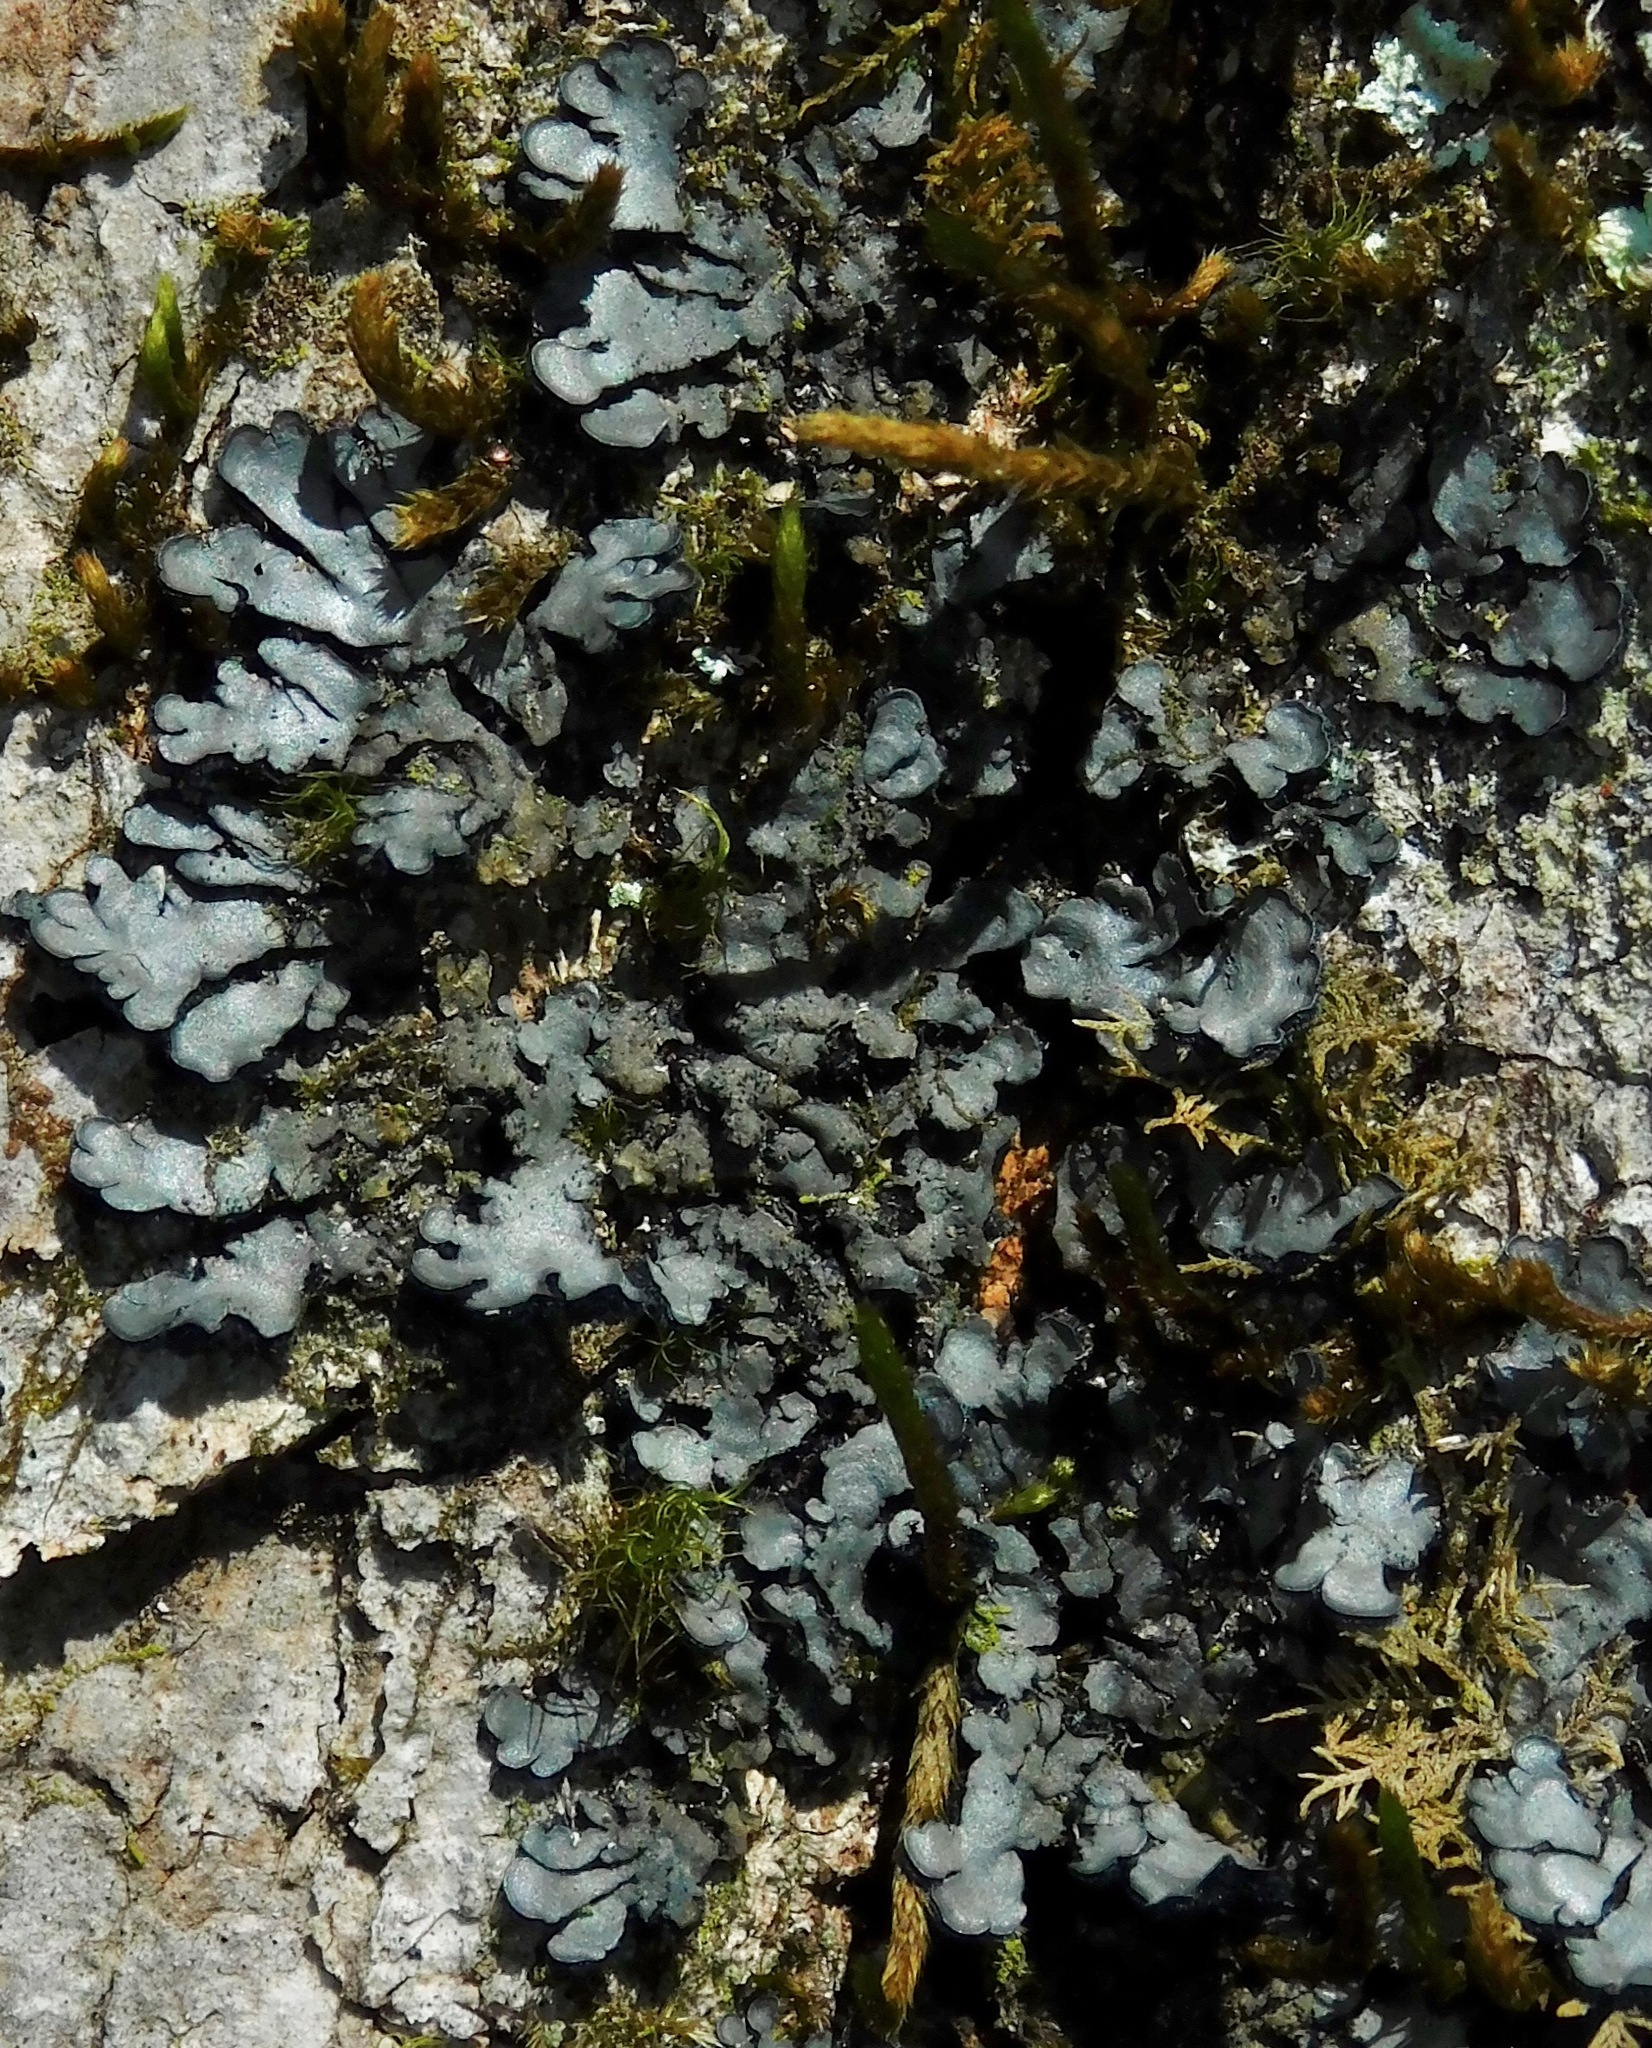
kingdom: Fungi
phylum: Ascomycota
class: Lecanoromycetes
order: Peltigerales
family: Coccocarpiaceae
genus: Coccocarpia
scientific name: Coccocarpia palmicola
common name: Salted shell lichen
